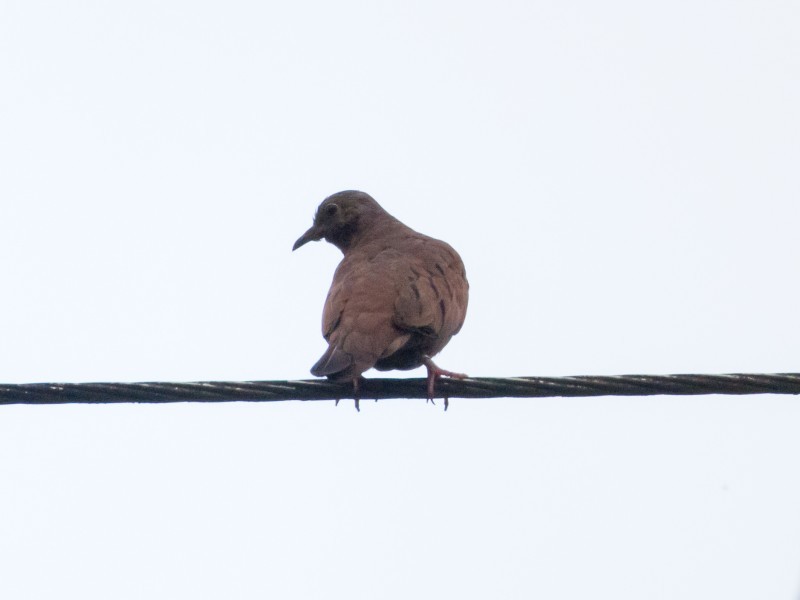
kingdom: Animalia
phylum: Chordata
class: Aves
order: Columbiformes
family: Columbidae
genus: Columbina
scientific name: Columbina talpacoti
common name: Ruddy ground dove
